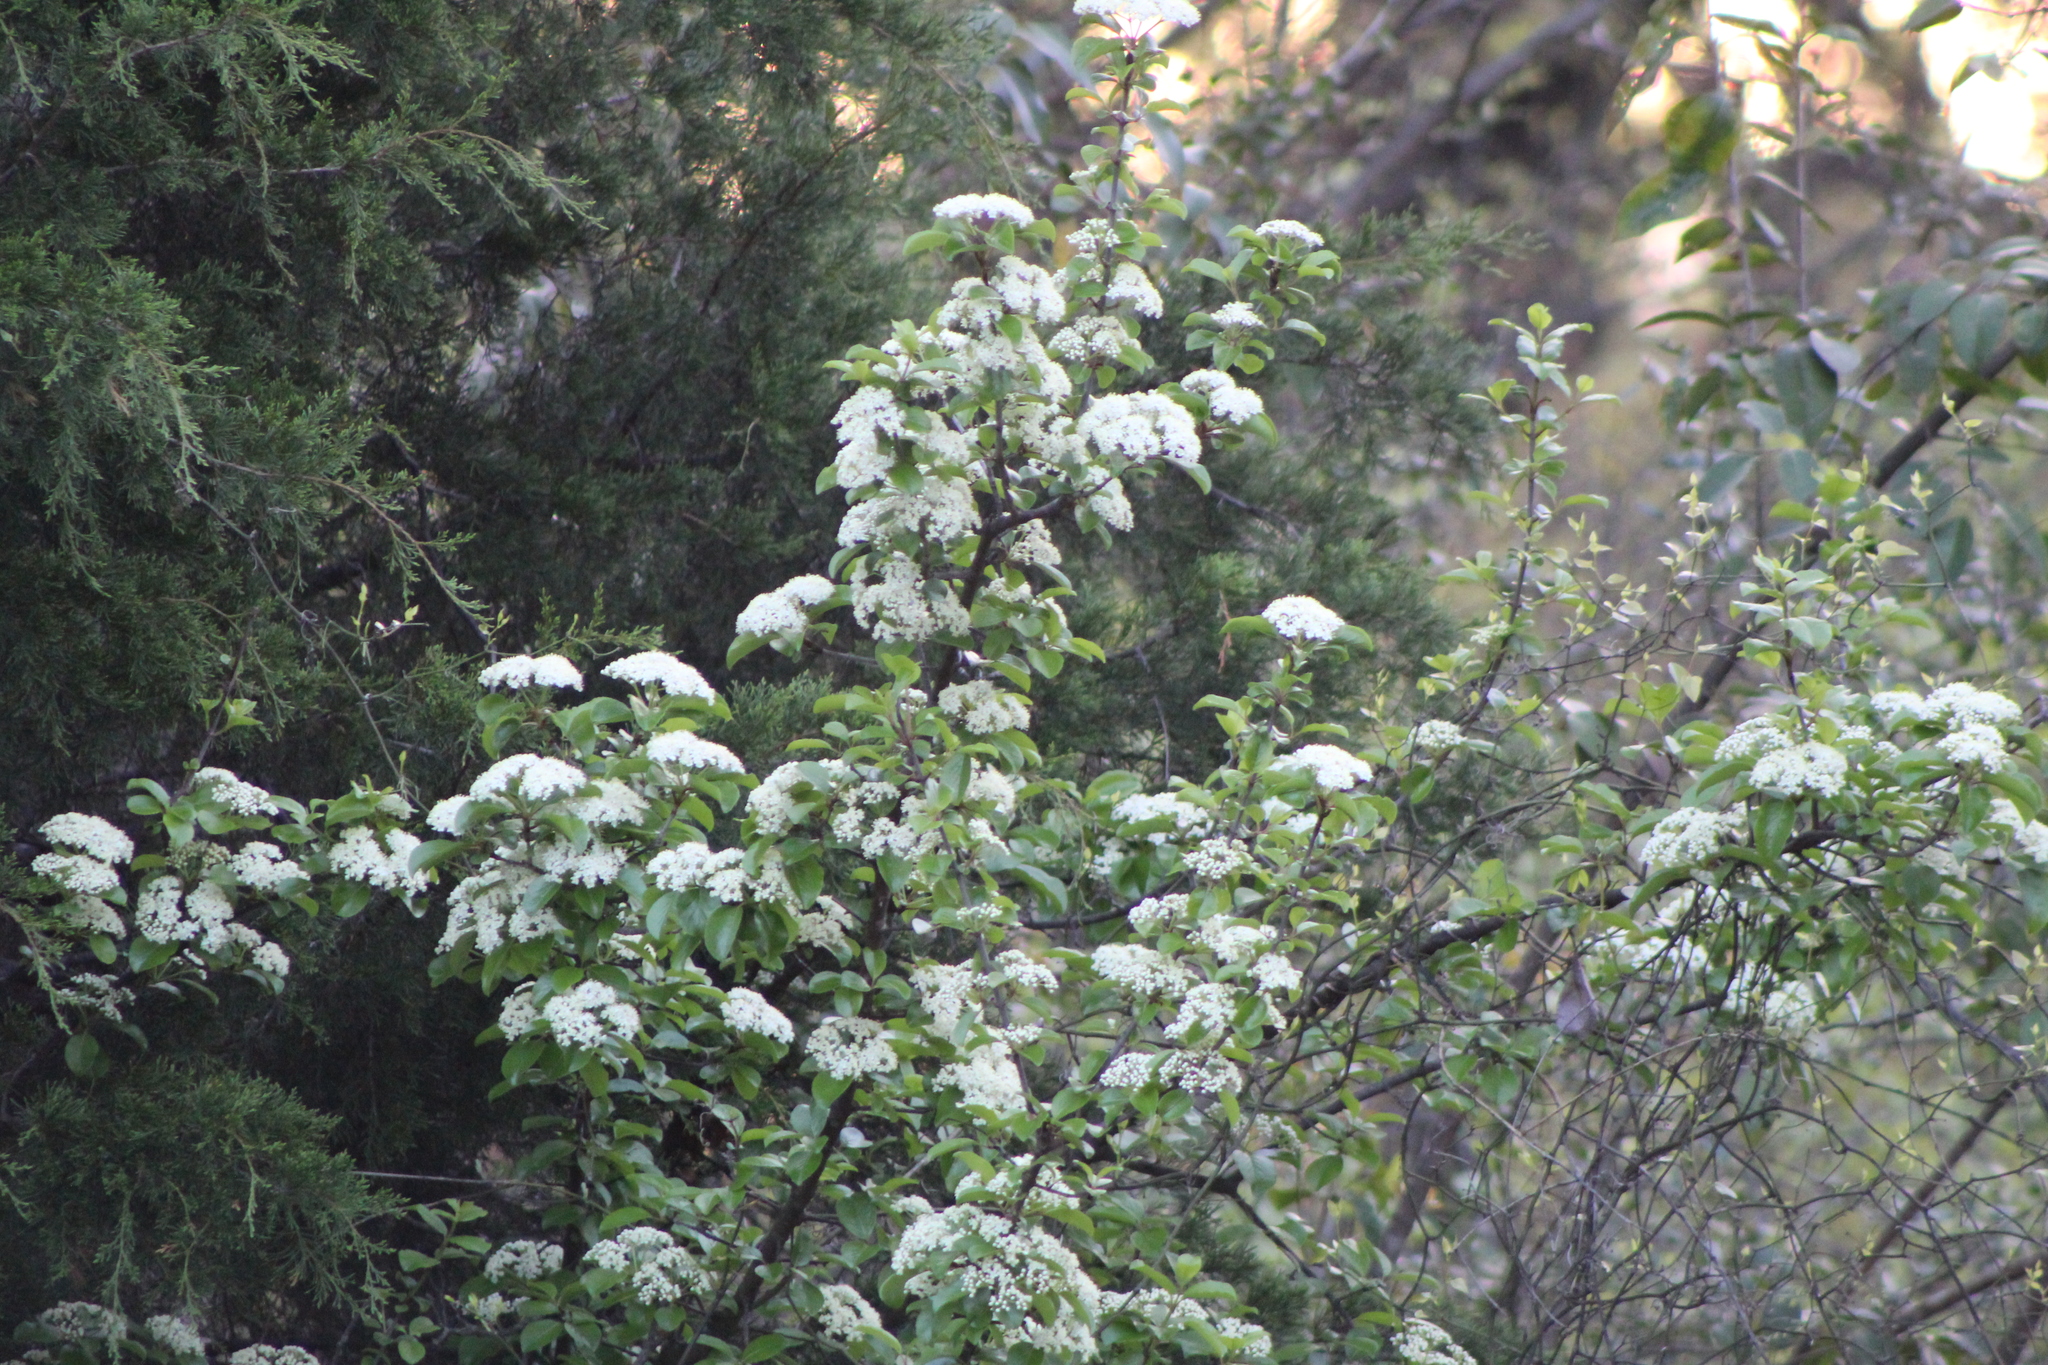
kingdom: Plantae
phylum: Tracheophyta
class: Magnoliopsida
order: Dipsacales
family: Viburnaceae
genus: Viburnum
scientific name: Viburnum rufidulum
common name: Blue haw
